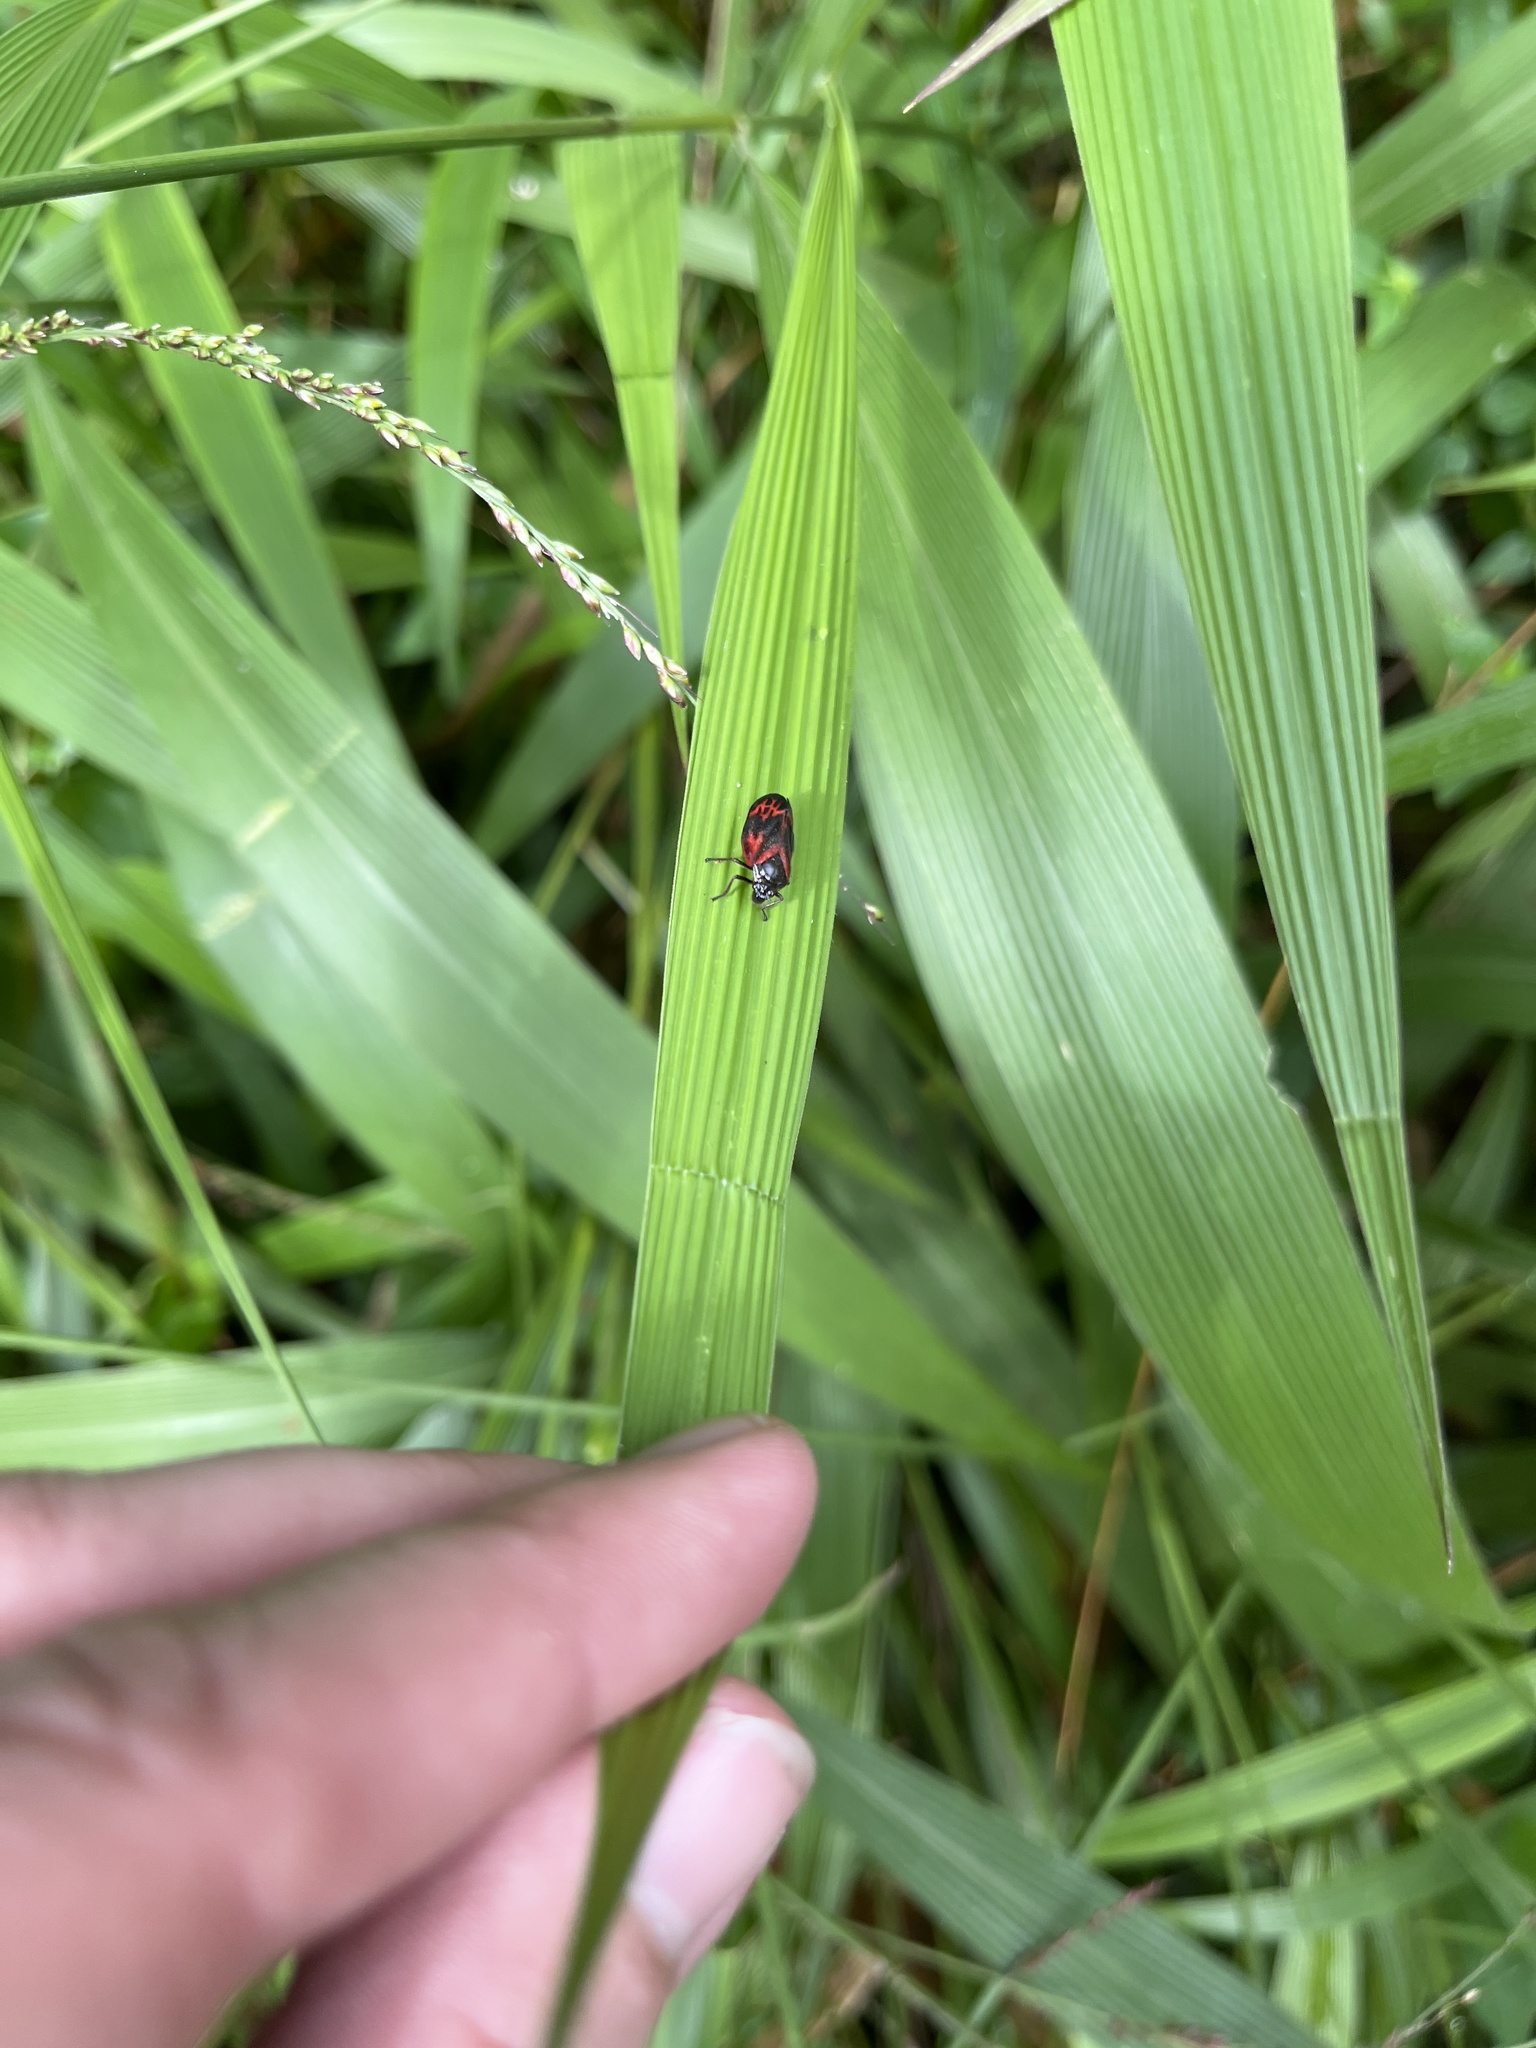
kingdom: Animalia
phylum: Arthropoda
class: Insecta
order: Hemiptera
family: Cercopidae
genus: Locris
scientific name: Locris cardinalis
